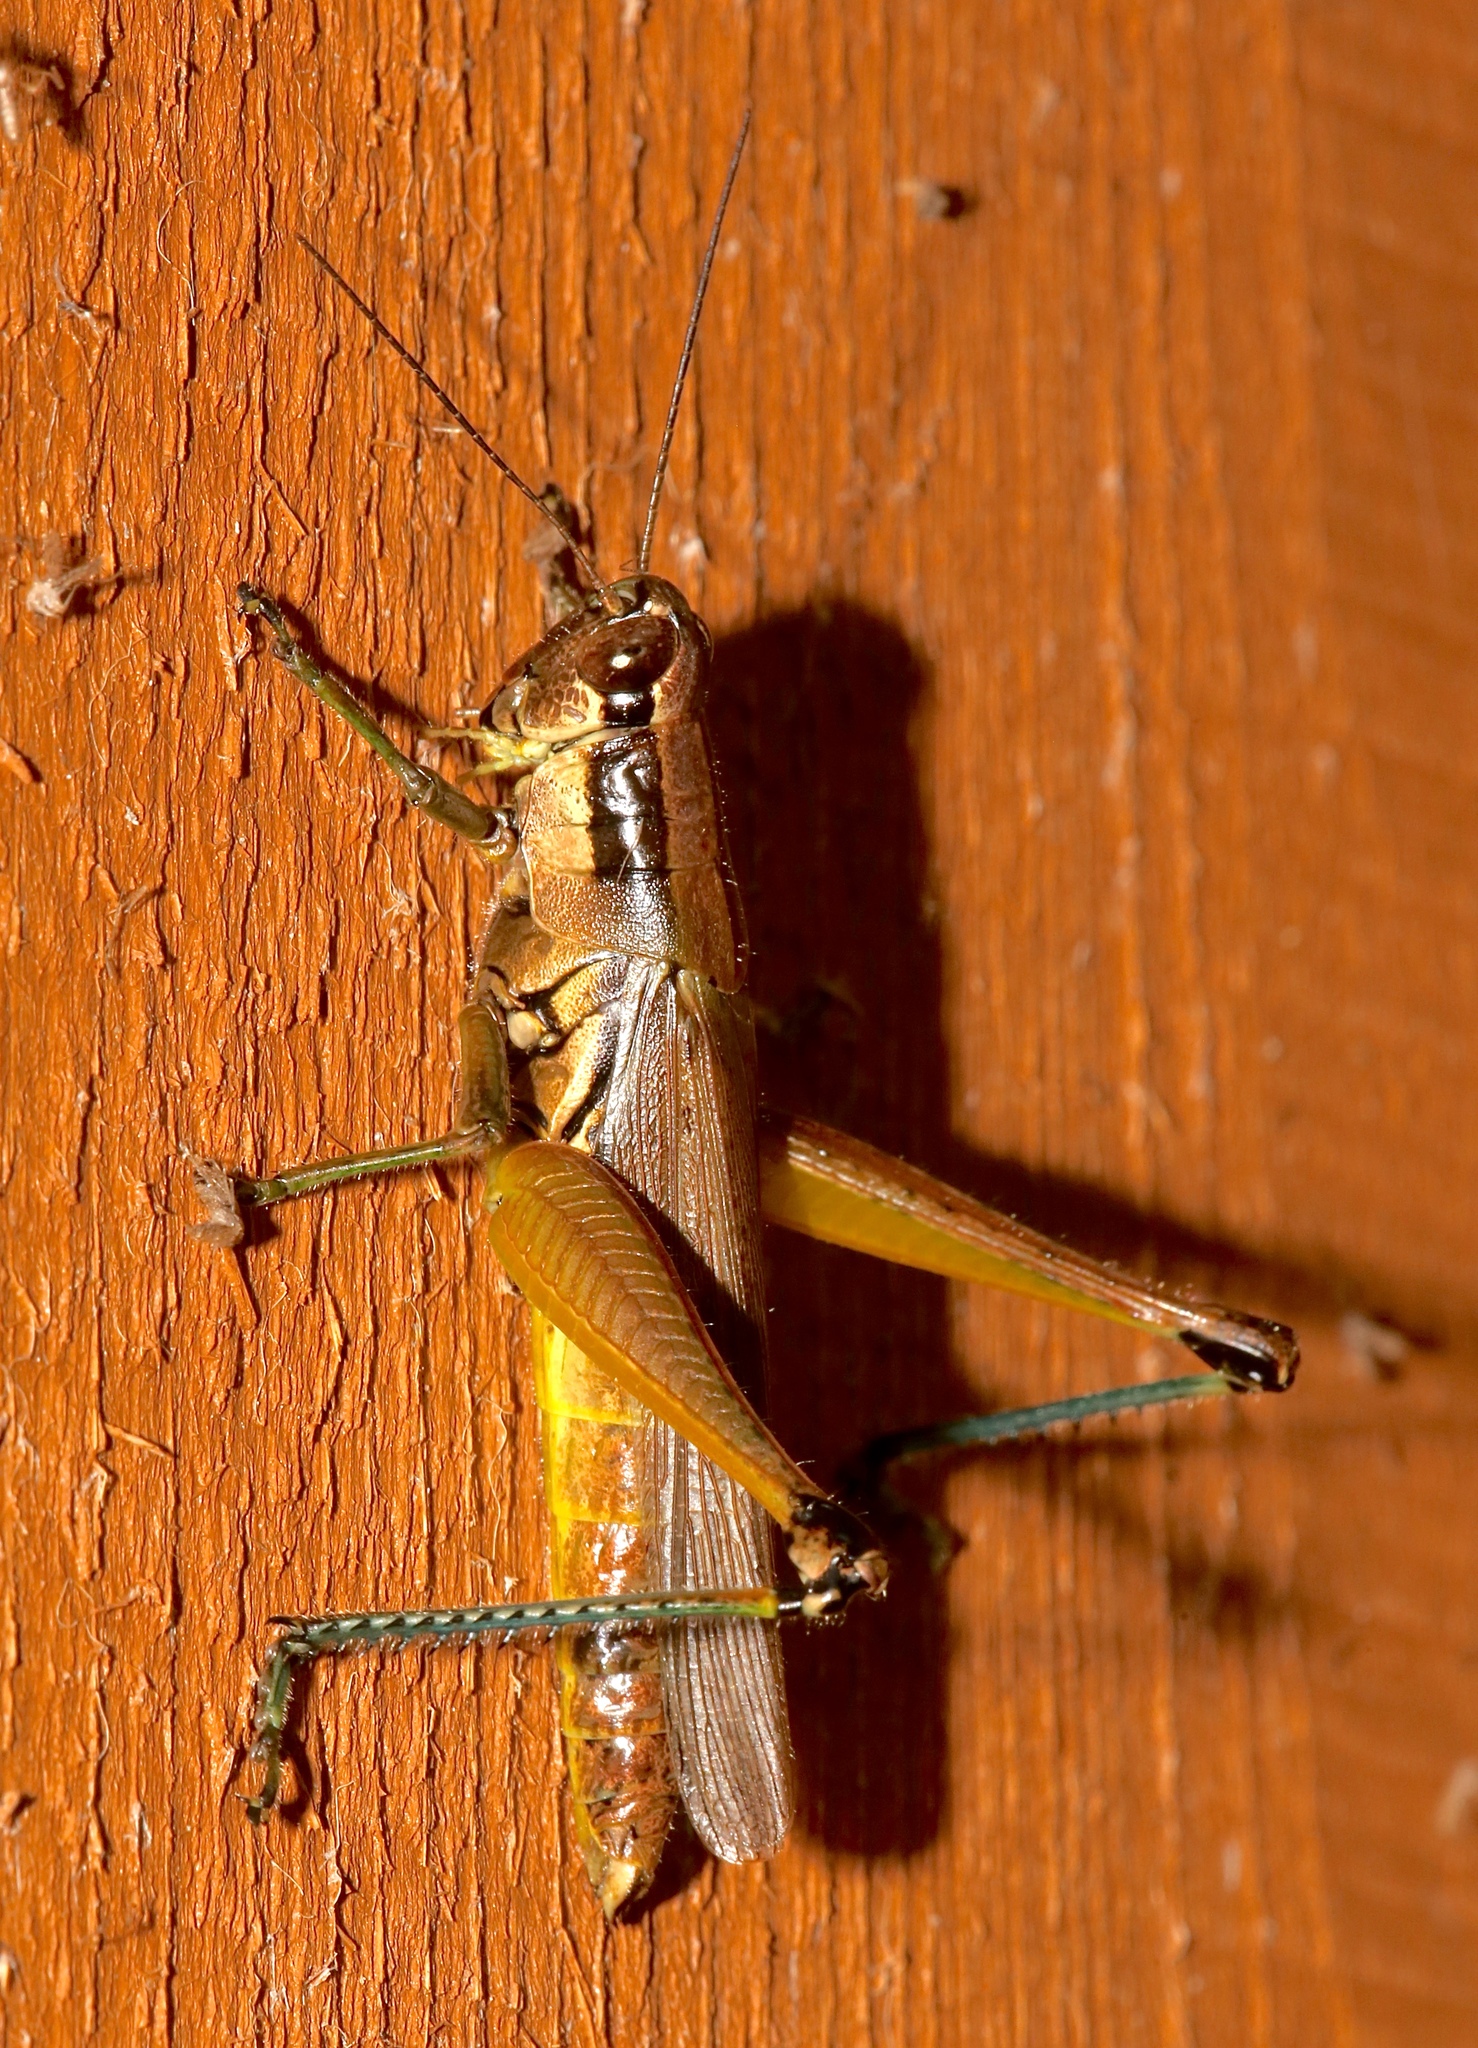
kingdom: Animalia
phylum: Arthropoda
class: Insecta
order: Orthoptera
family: Acrididae
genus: Paroxya
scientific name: Paroxya atlantica
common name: Atlantic grasshopper
